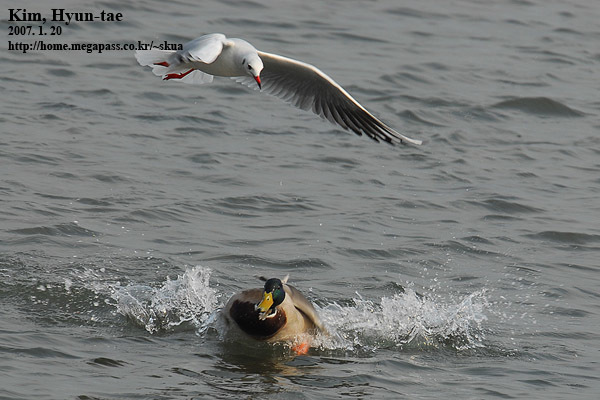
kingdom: Animalia
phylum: Chordata
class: Aves
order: Charadriiformes
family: Laridae
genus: Chroicocephalus
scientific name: Chroicocephalus ridibundus
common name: Black-headed gull
